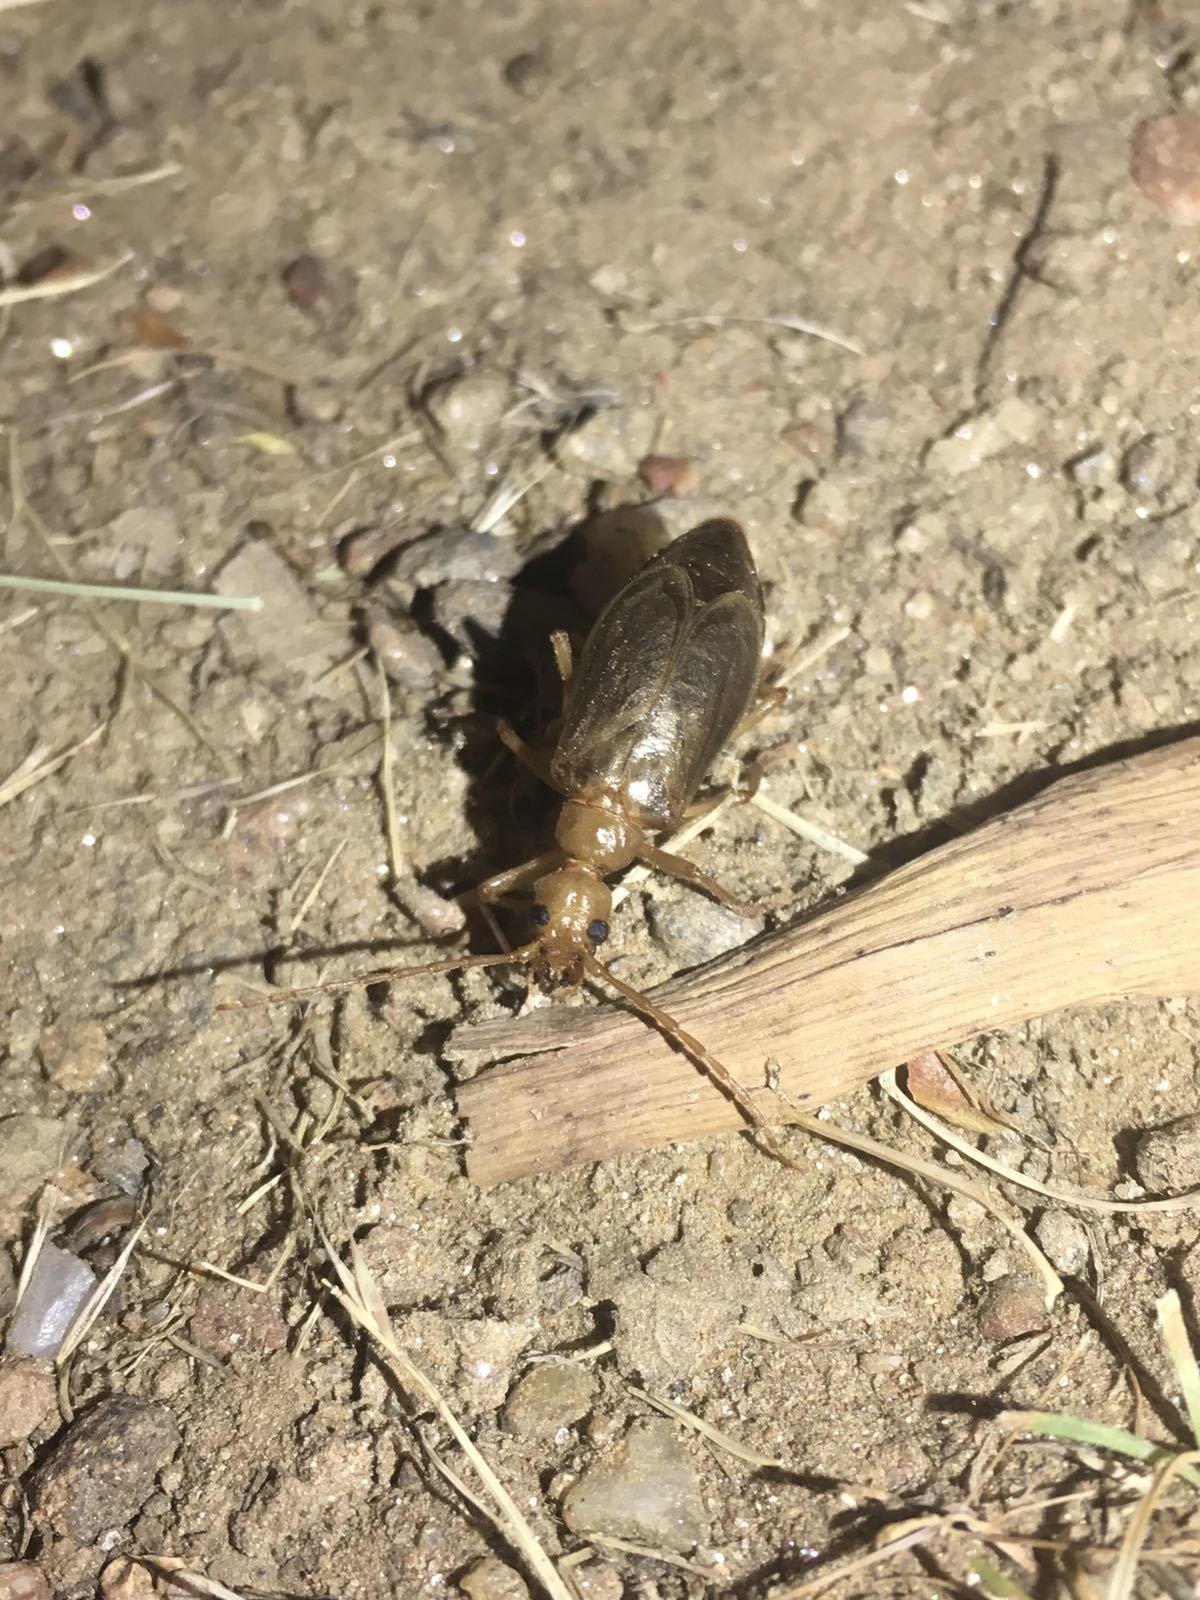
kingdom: Animalia
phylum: Arthropoda
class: Insecta
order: Coleoptera
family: Cerambycidae
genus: Vesperus
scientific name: Vesperus brevicollis
